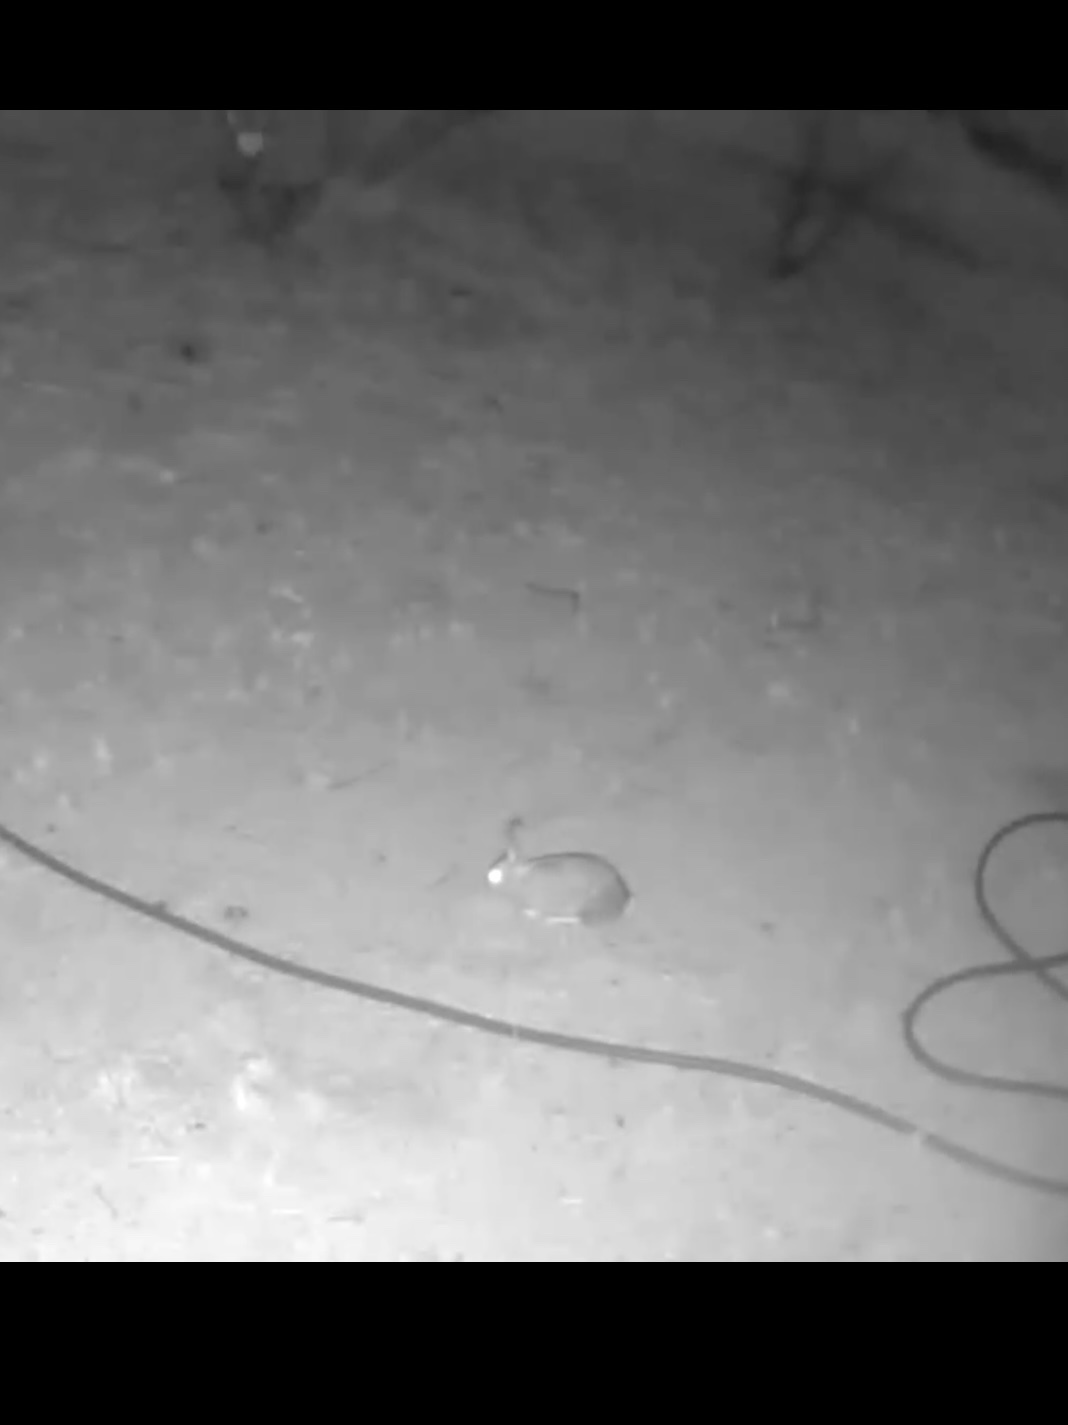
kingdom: Animalia
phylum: Chordata
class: Mammalia
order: Lagomorpha
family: Leporidae
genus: Sylvilagus
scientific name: Sylvilagus audubonii
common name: Desert cottontail
